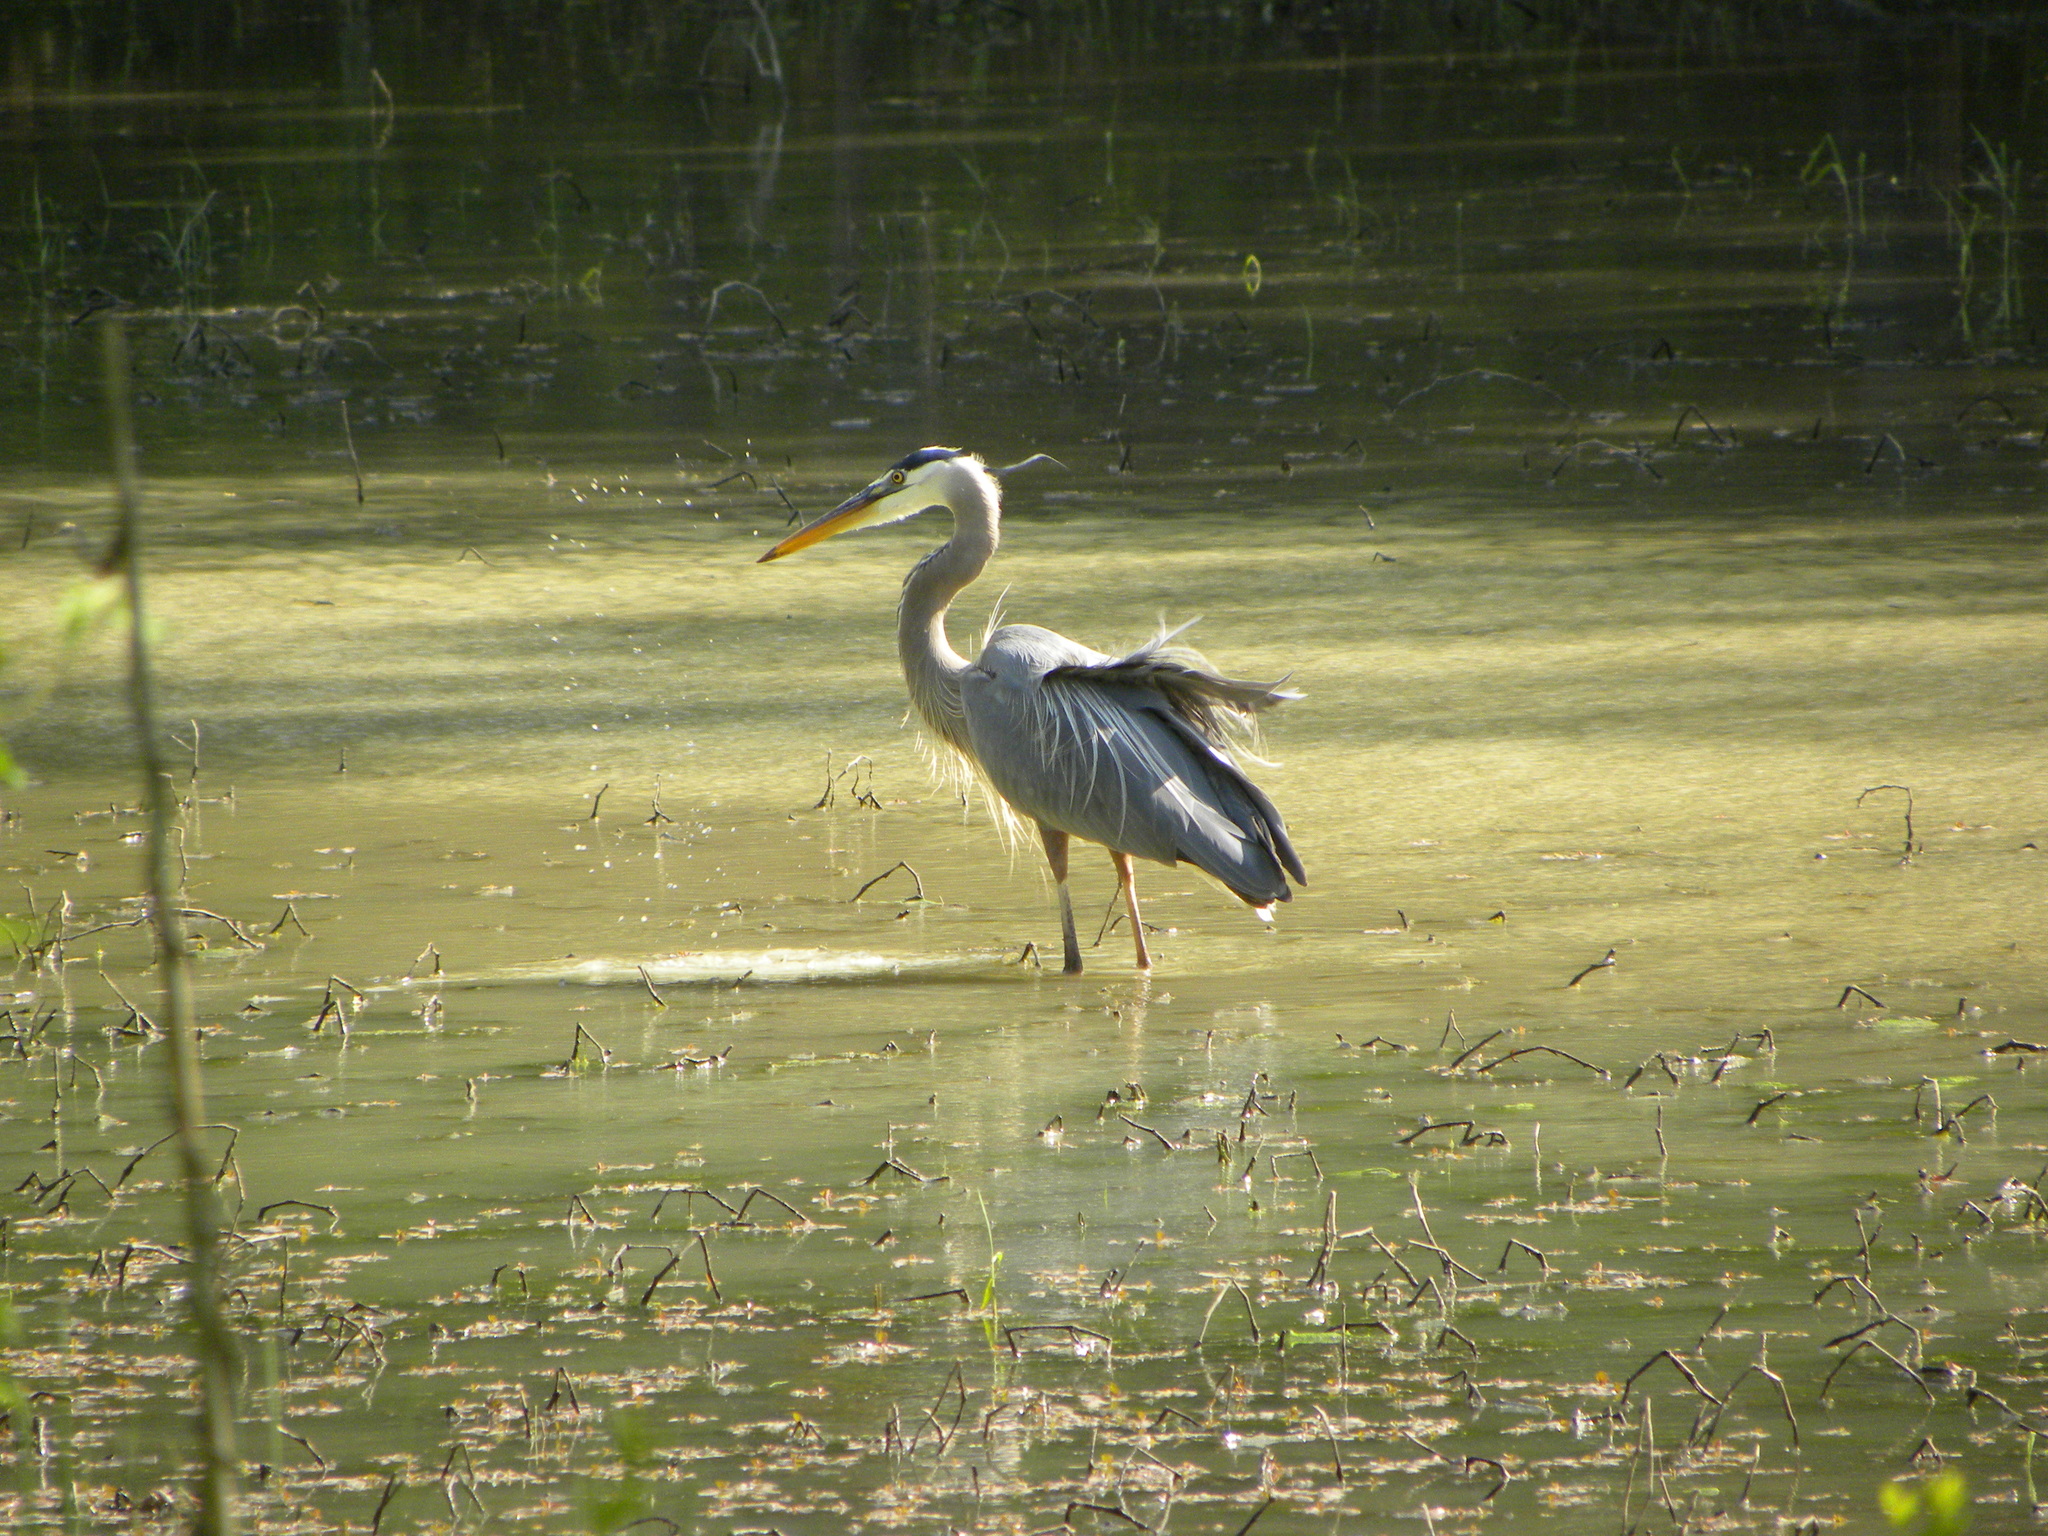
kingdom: Animalia
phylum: Chordata
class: Aves
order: Pelecaniformes
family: Ardeidae
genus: Ardea
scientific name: Ardea herodias
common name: Great blue heron
